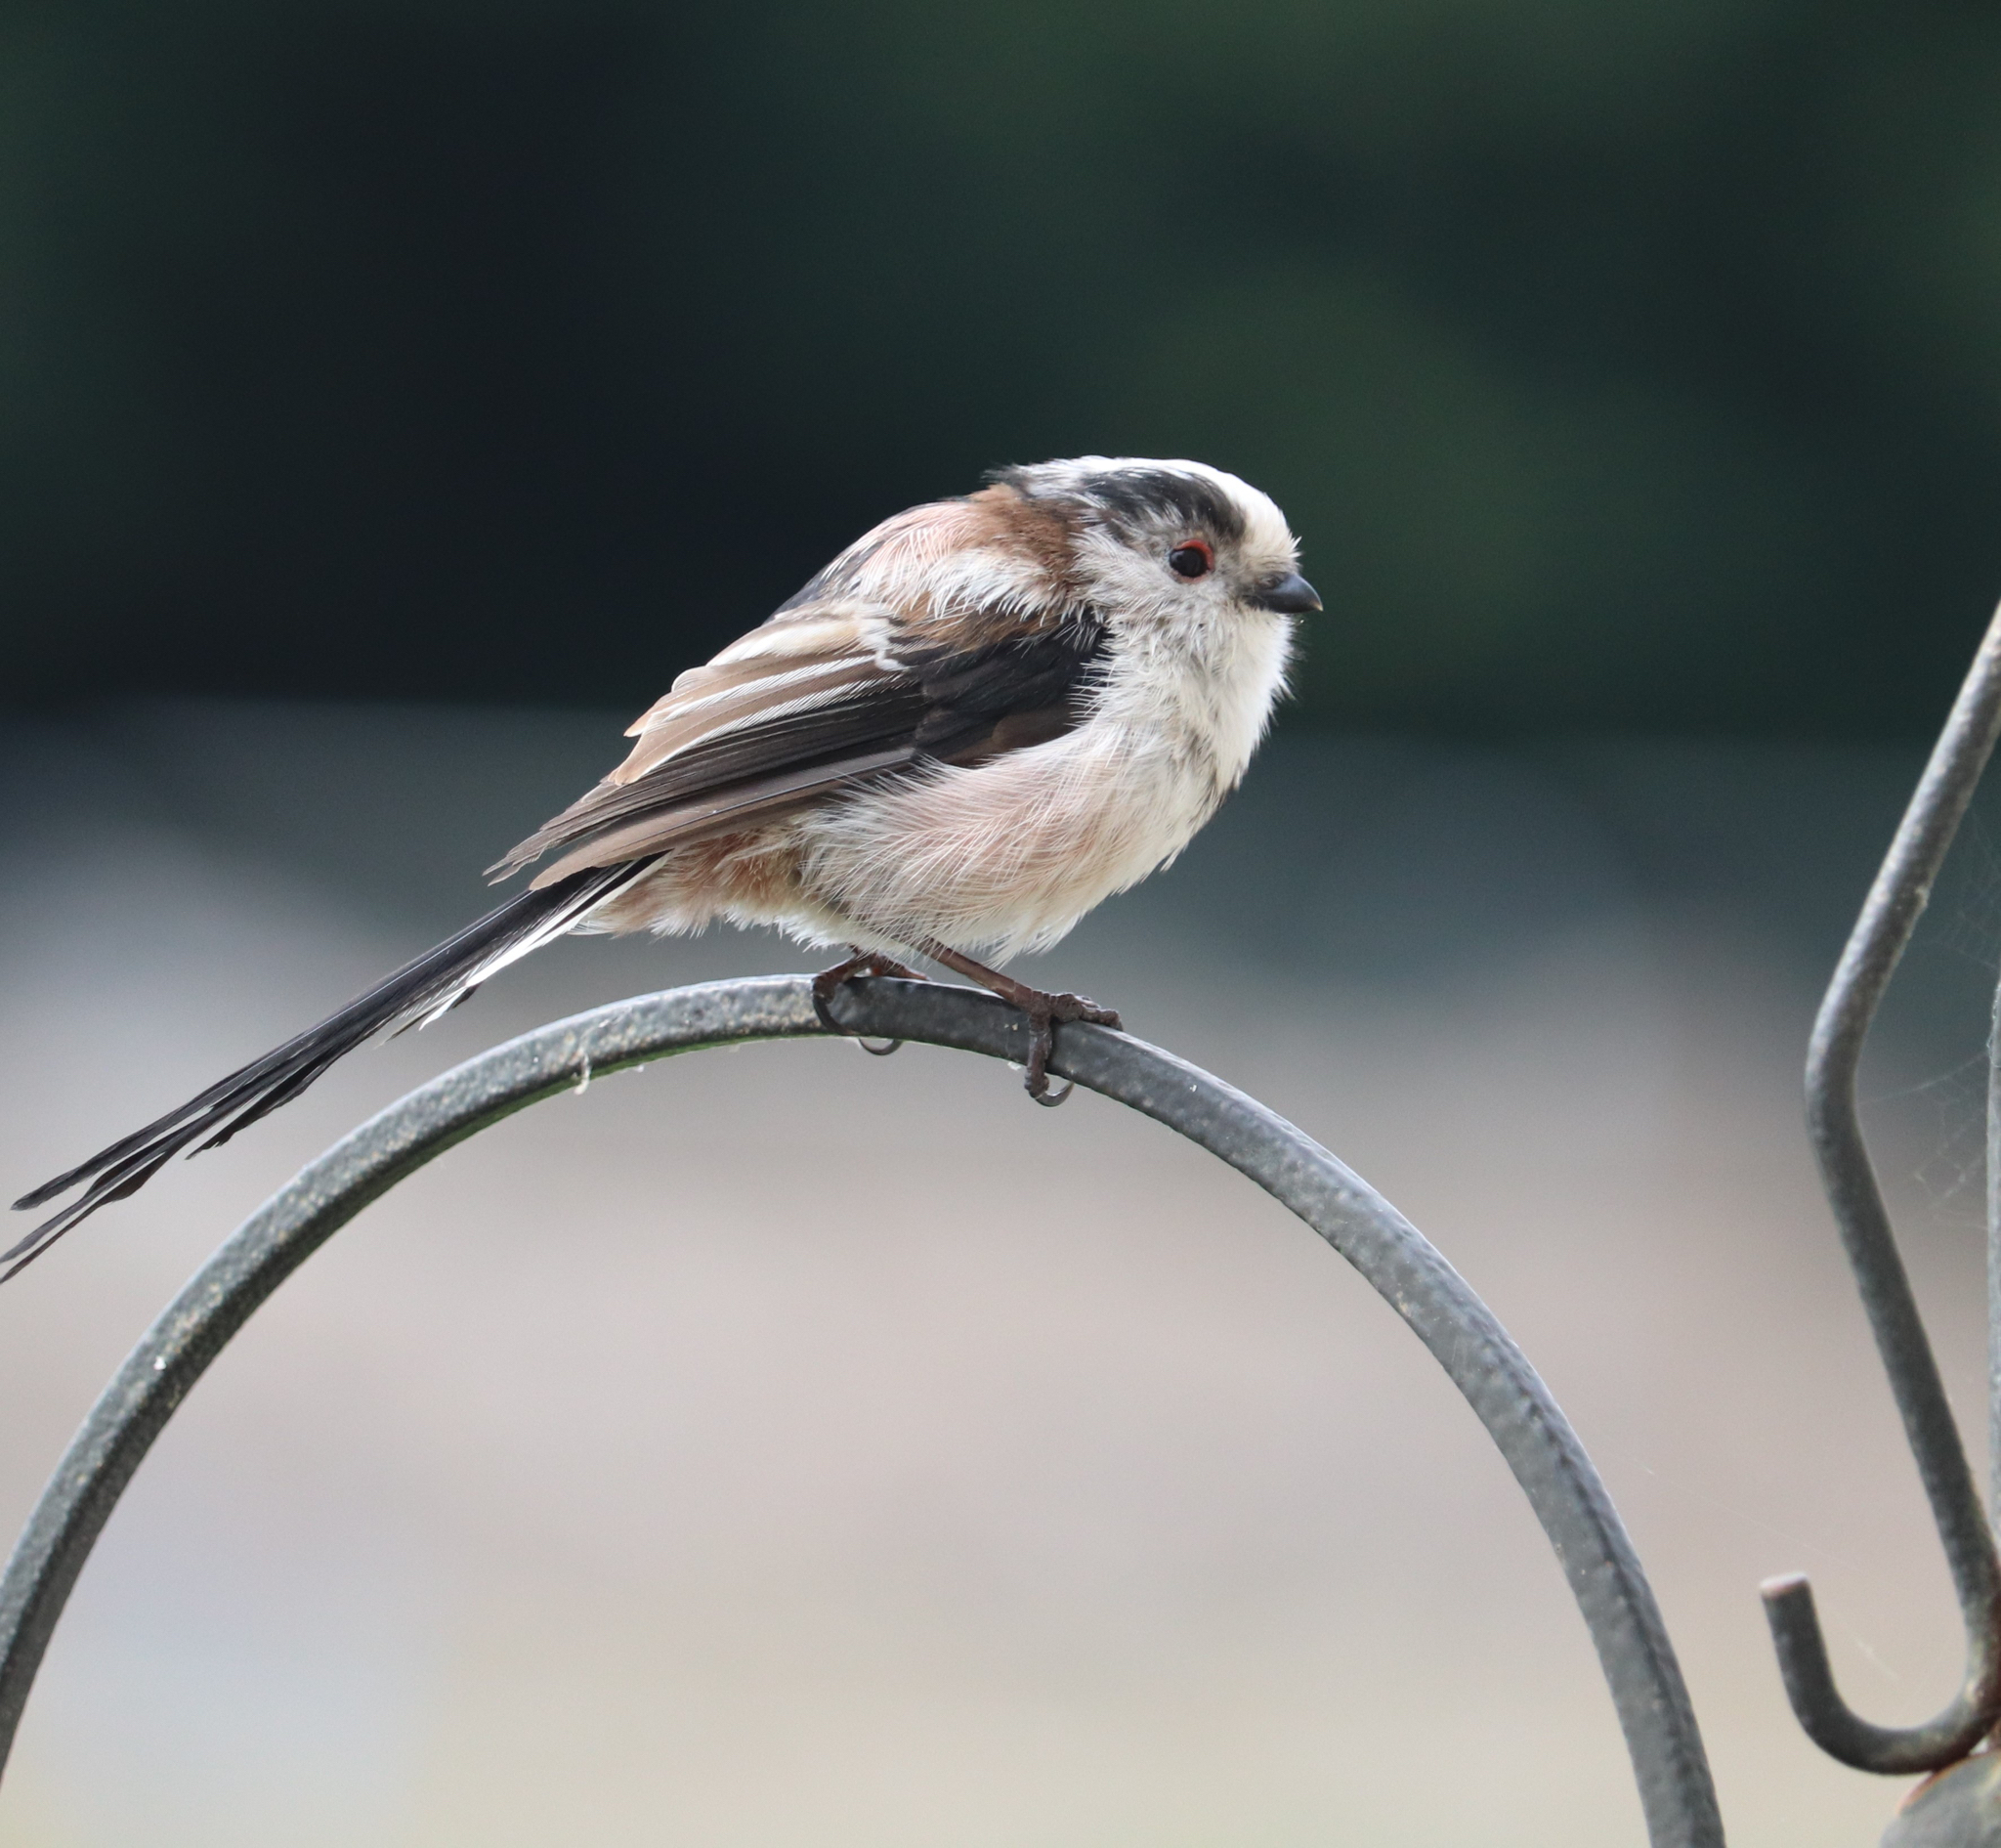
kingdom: Animalia
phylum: Chordata
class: Aves
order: Passeriformes
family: Aegithalidae
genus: Aegithalos
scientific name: Aegithalos caudatus
